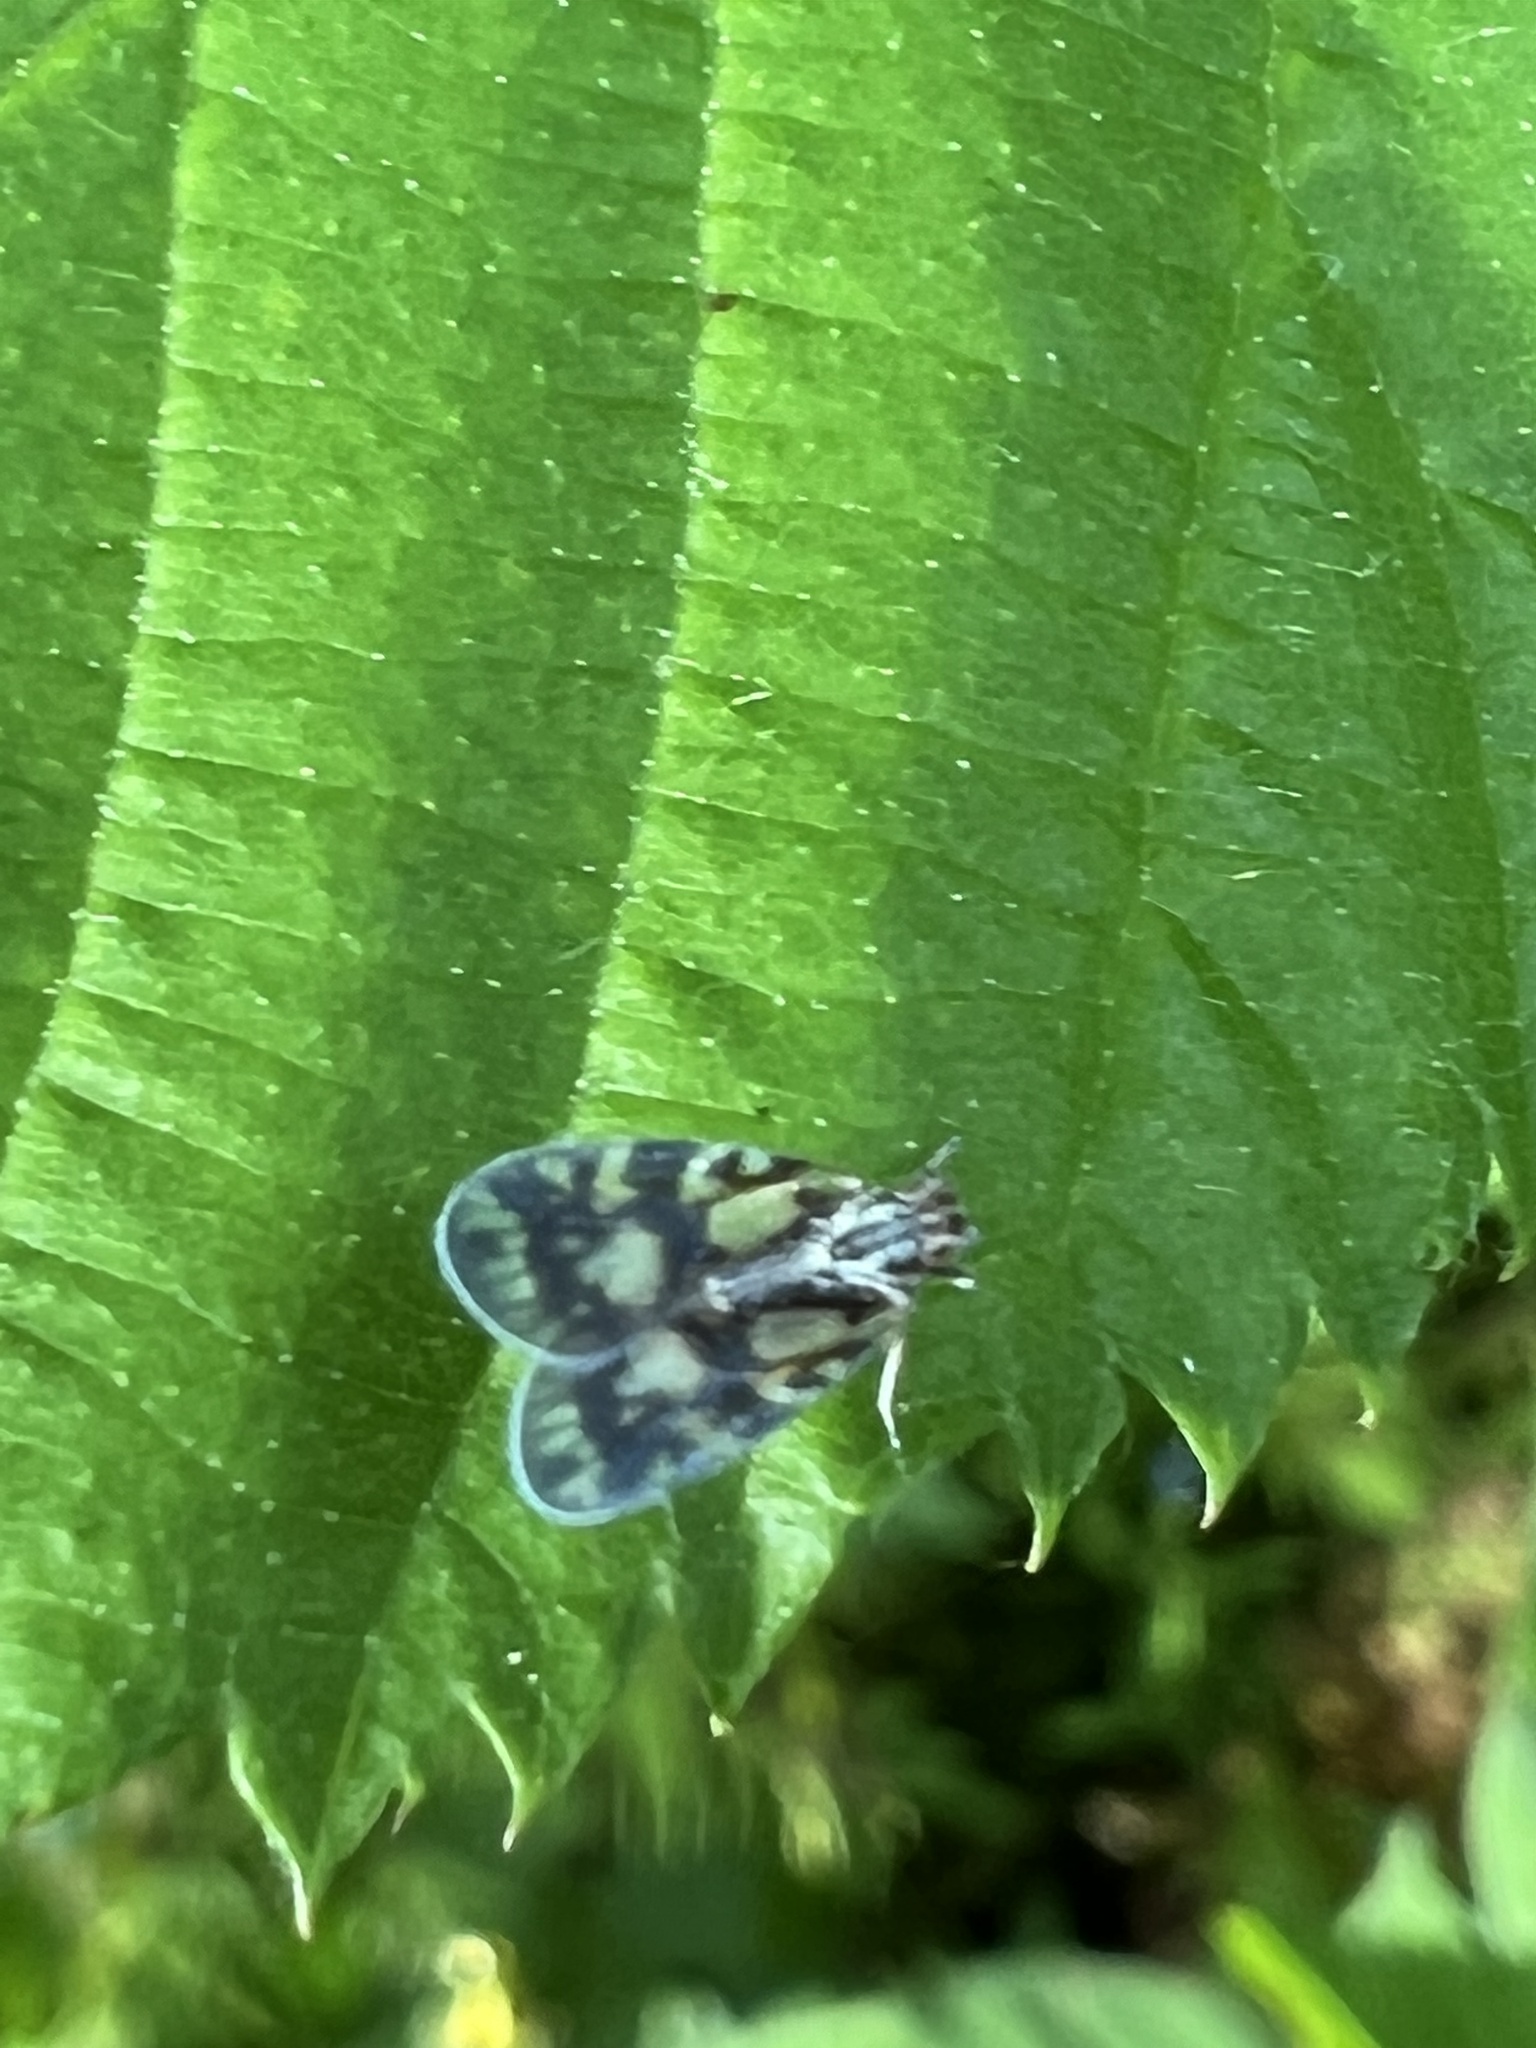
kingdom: Animalia
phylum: Arthropoda
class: Insecta
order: Hemiptera
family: Cixiidae
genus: Bothriocera
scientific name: Bothriocera cognita
